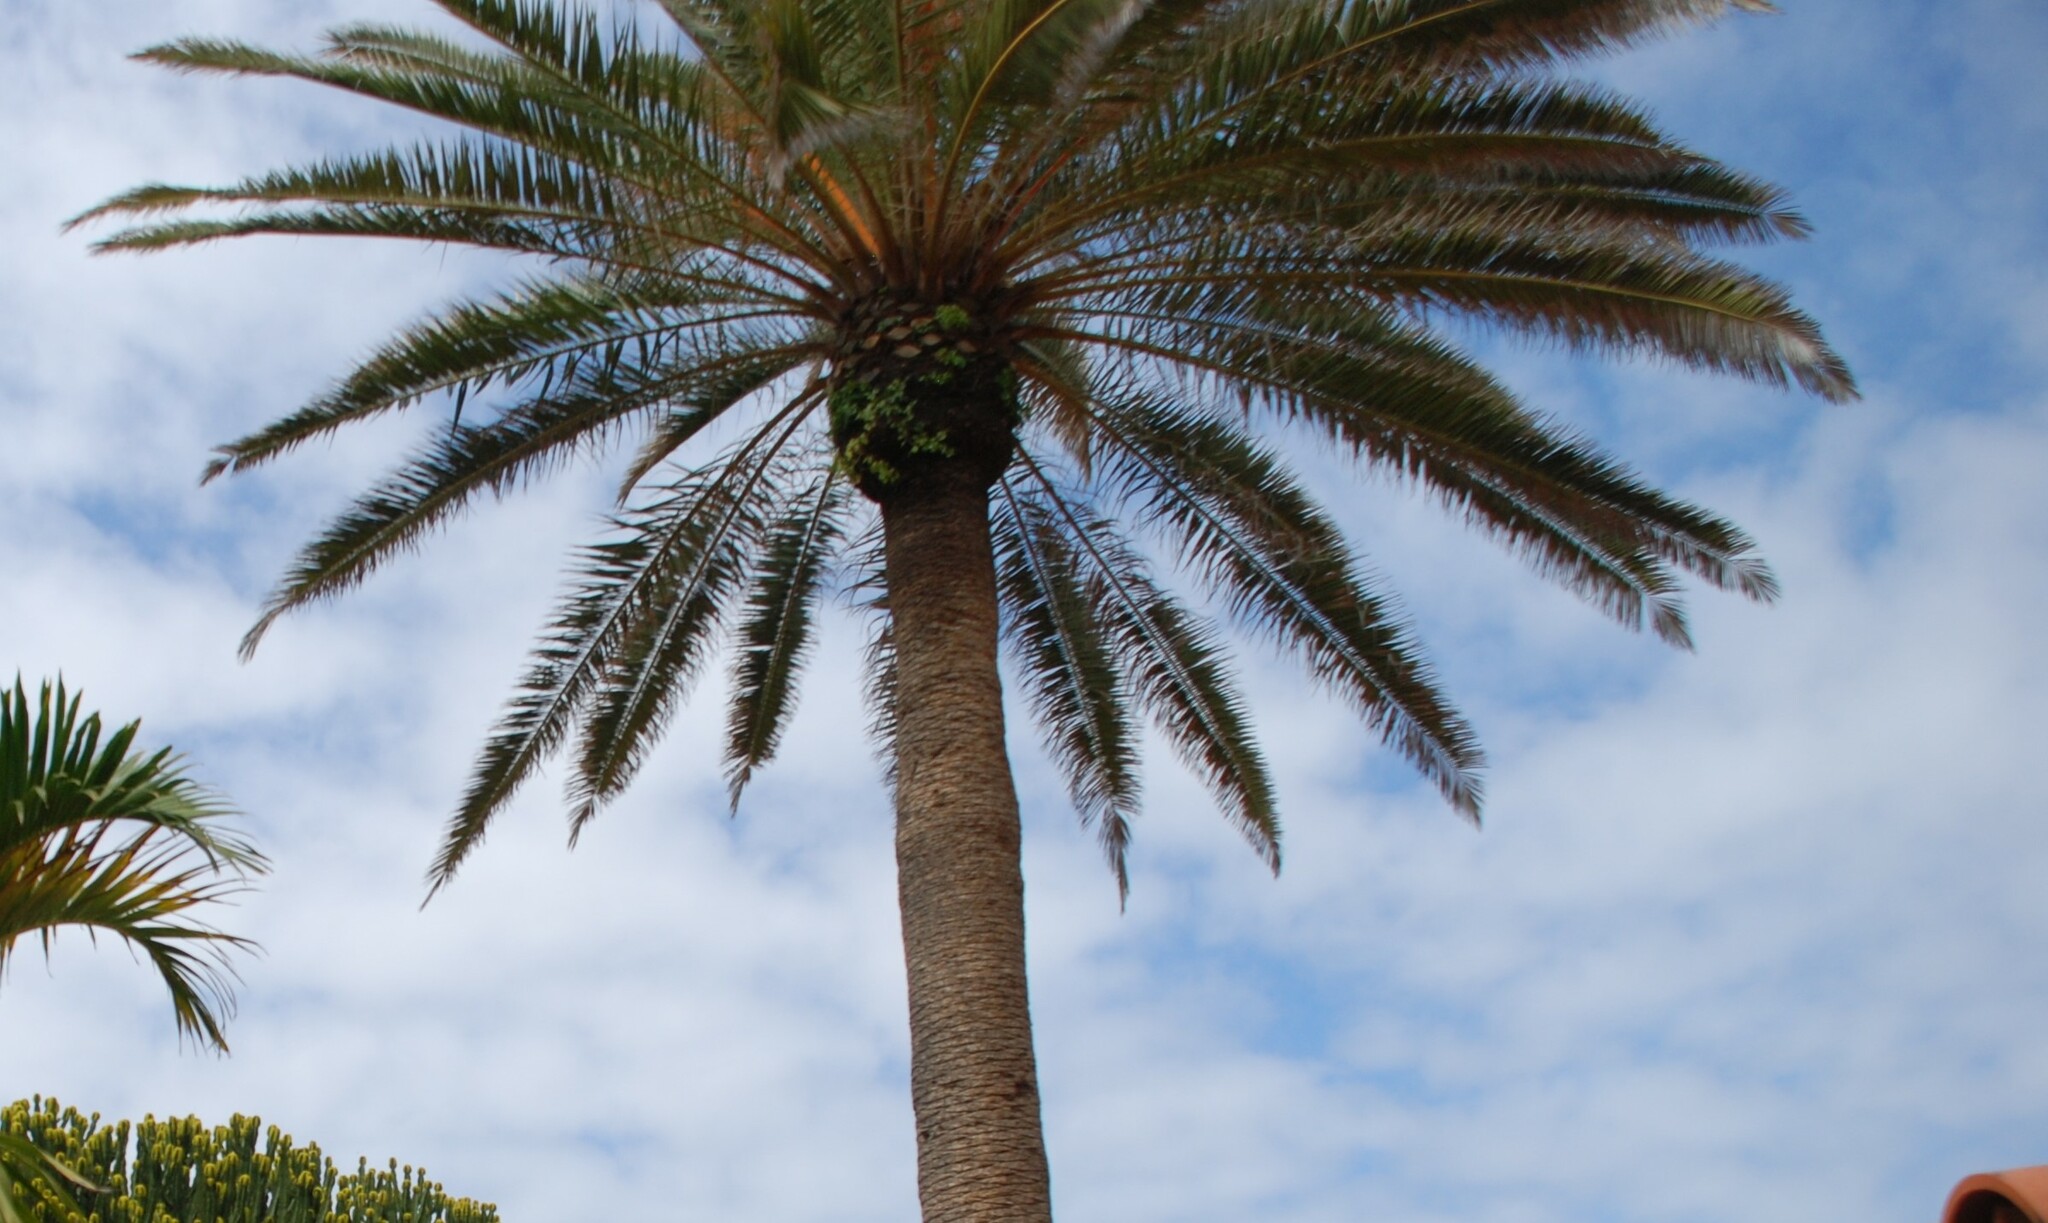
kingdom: Plantae
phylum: Tracheophyta
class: Liliopsida
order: Arecales
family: Arecaceae
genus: Phoenix
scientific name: Phoenix canariensis
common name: Canary island date palm
